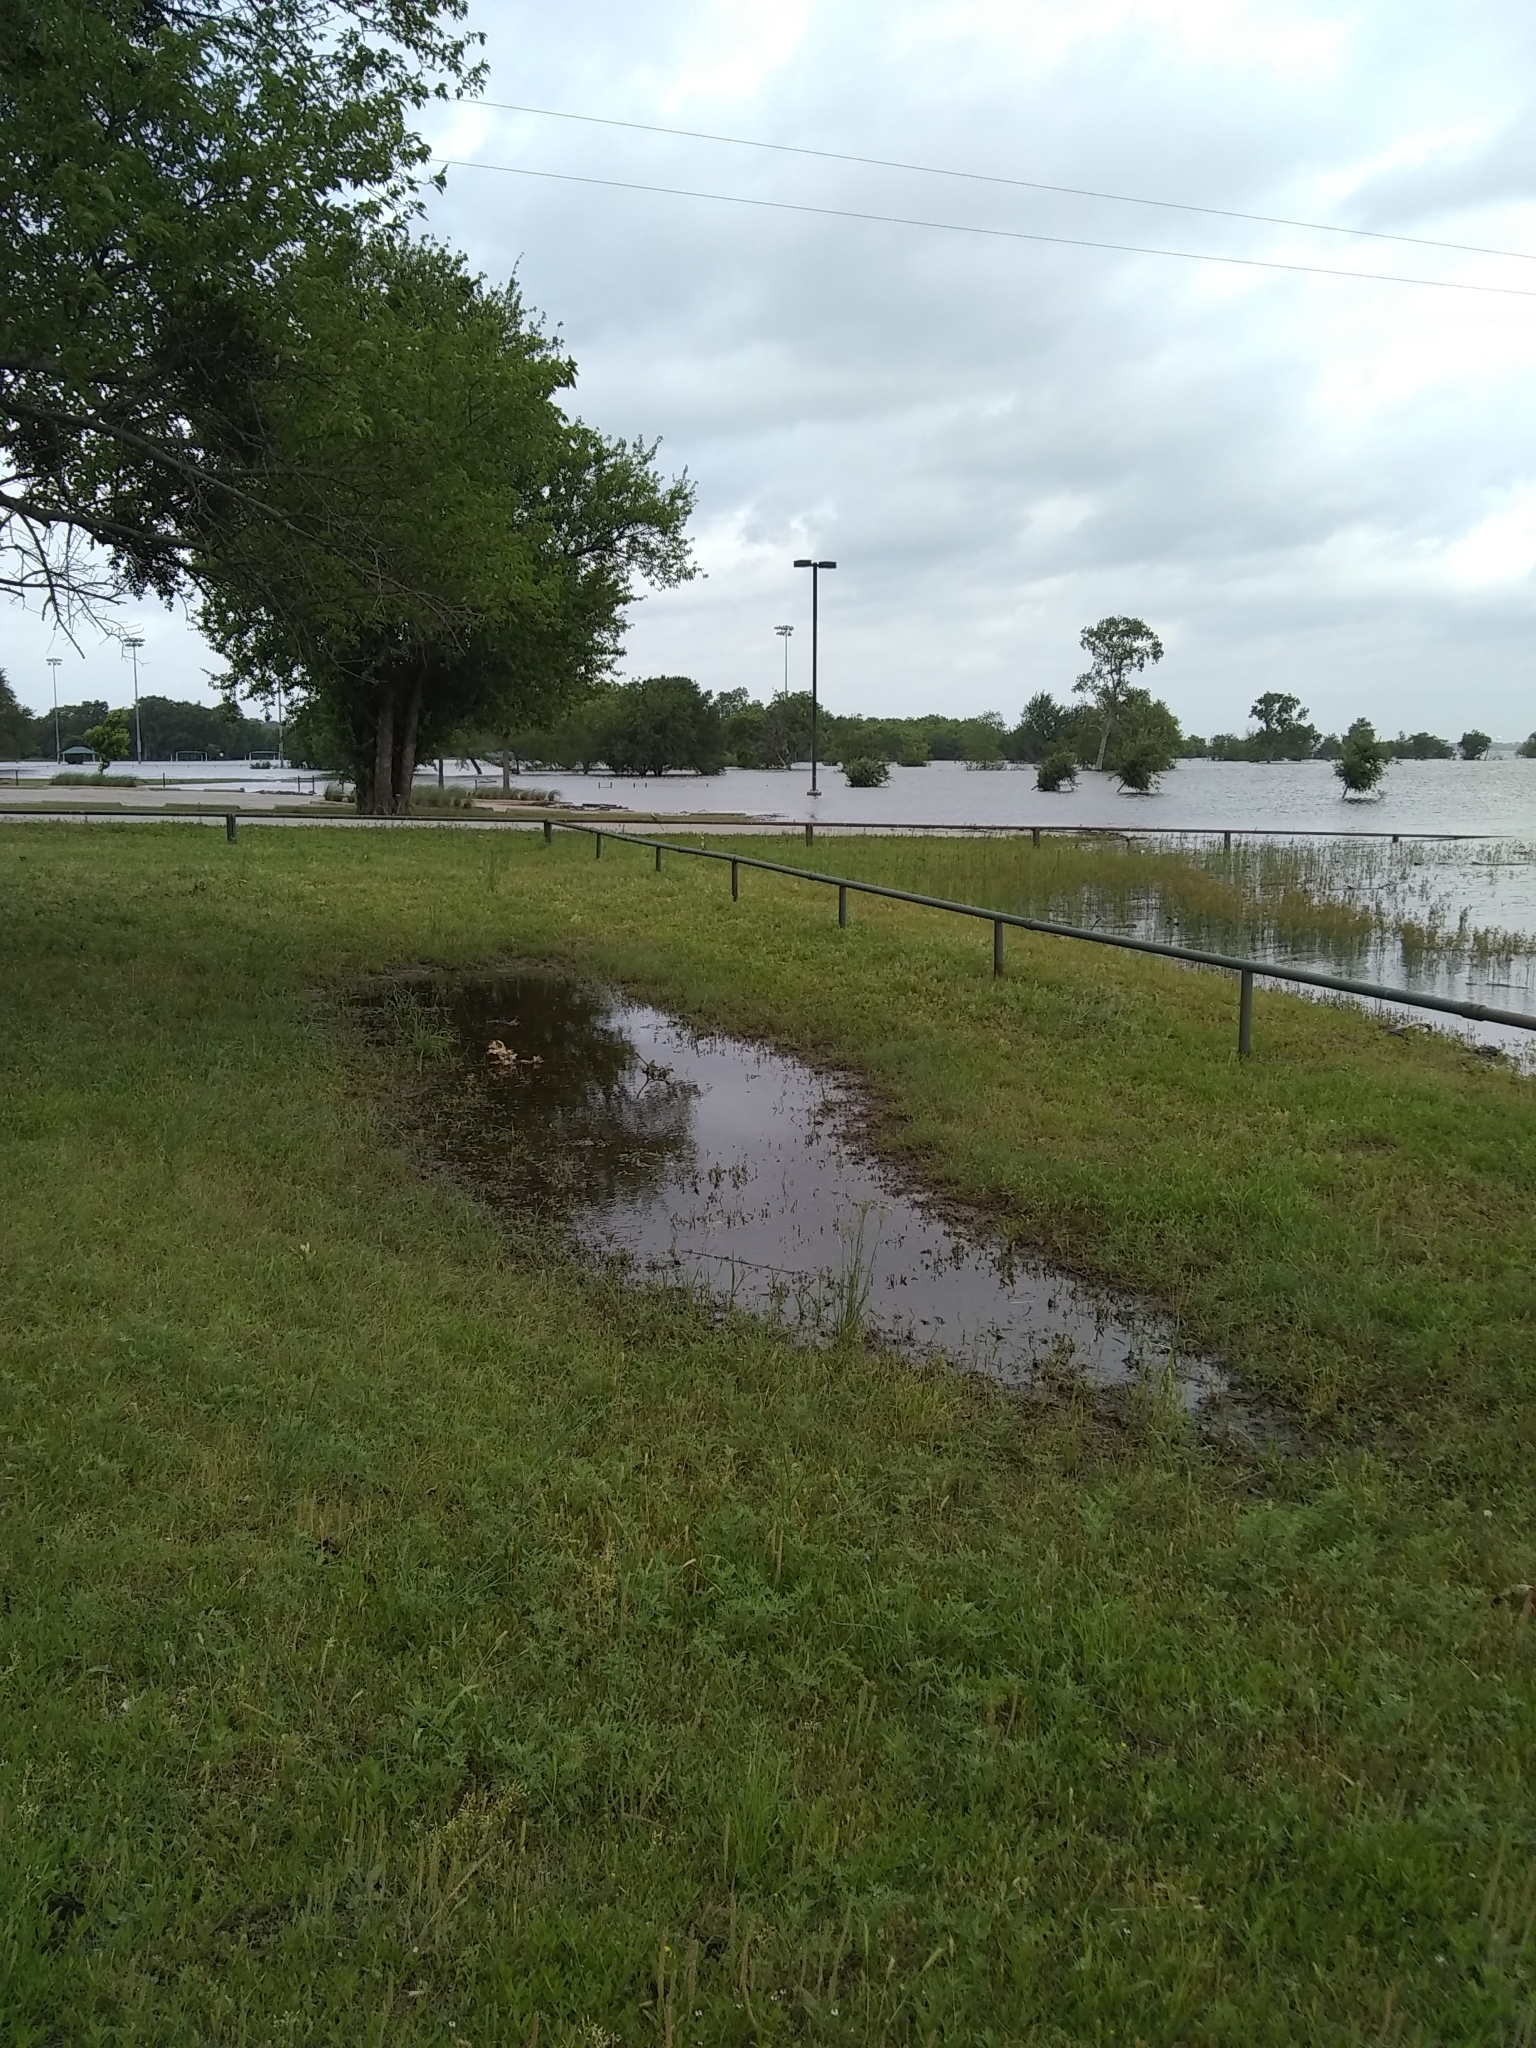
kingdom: Animalia
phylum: Chordata
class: Aves
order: Anseriformes
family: Anatidae
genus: Anas
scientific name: Anas platyrhynchos
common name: Mallard
